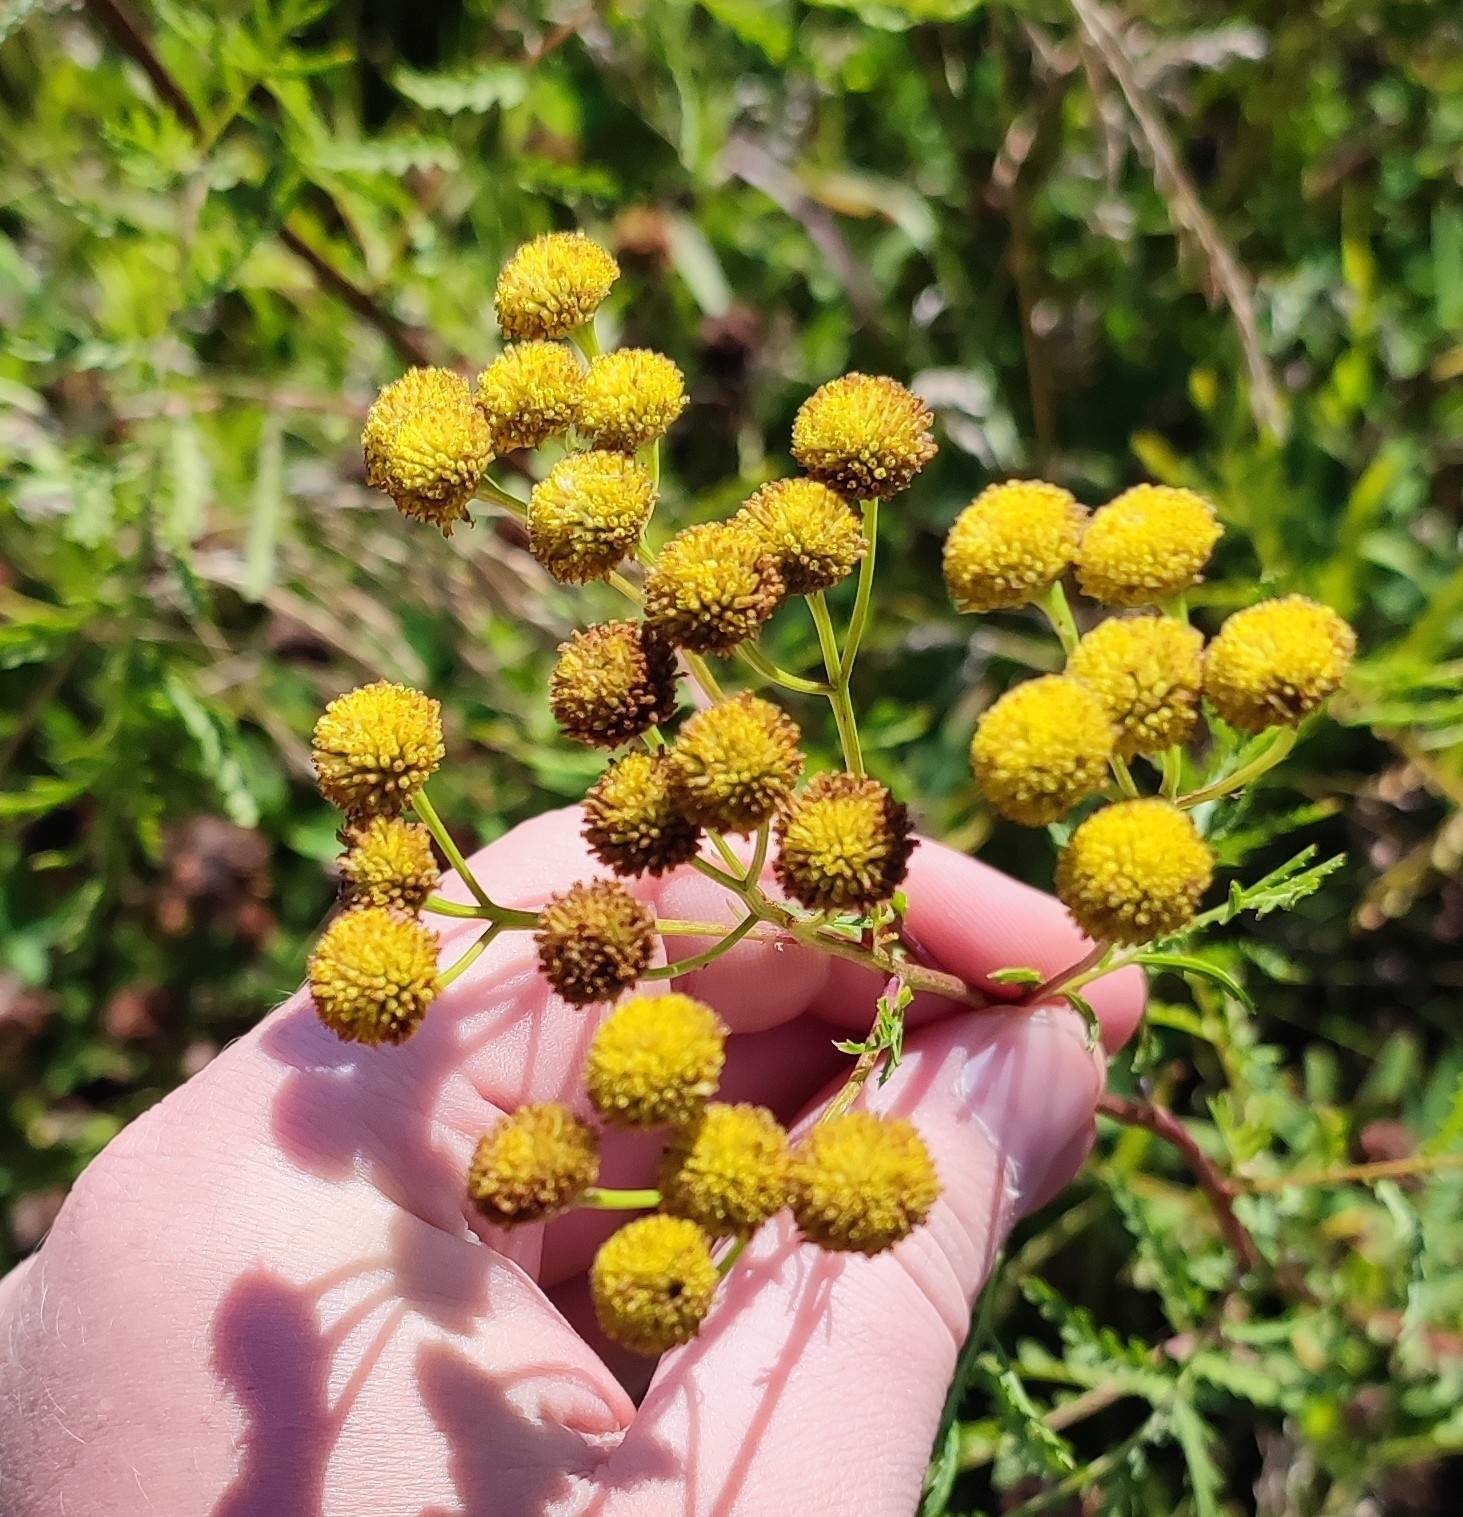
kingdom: Plantae
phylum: Tracheophyta
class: Magnoliopsida
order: Asterales
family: Asteraceae
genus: Tanacetum
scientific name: Tanacetum vulgare
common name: Common tansy
